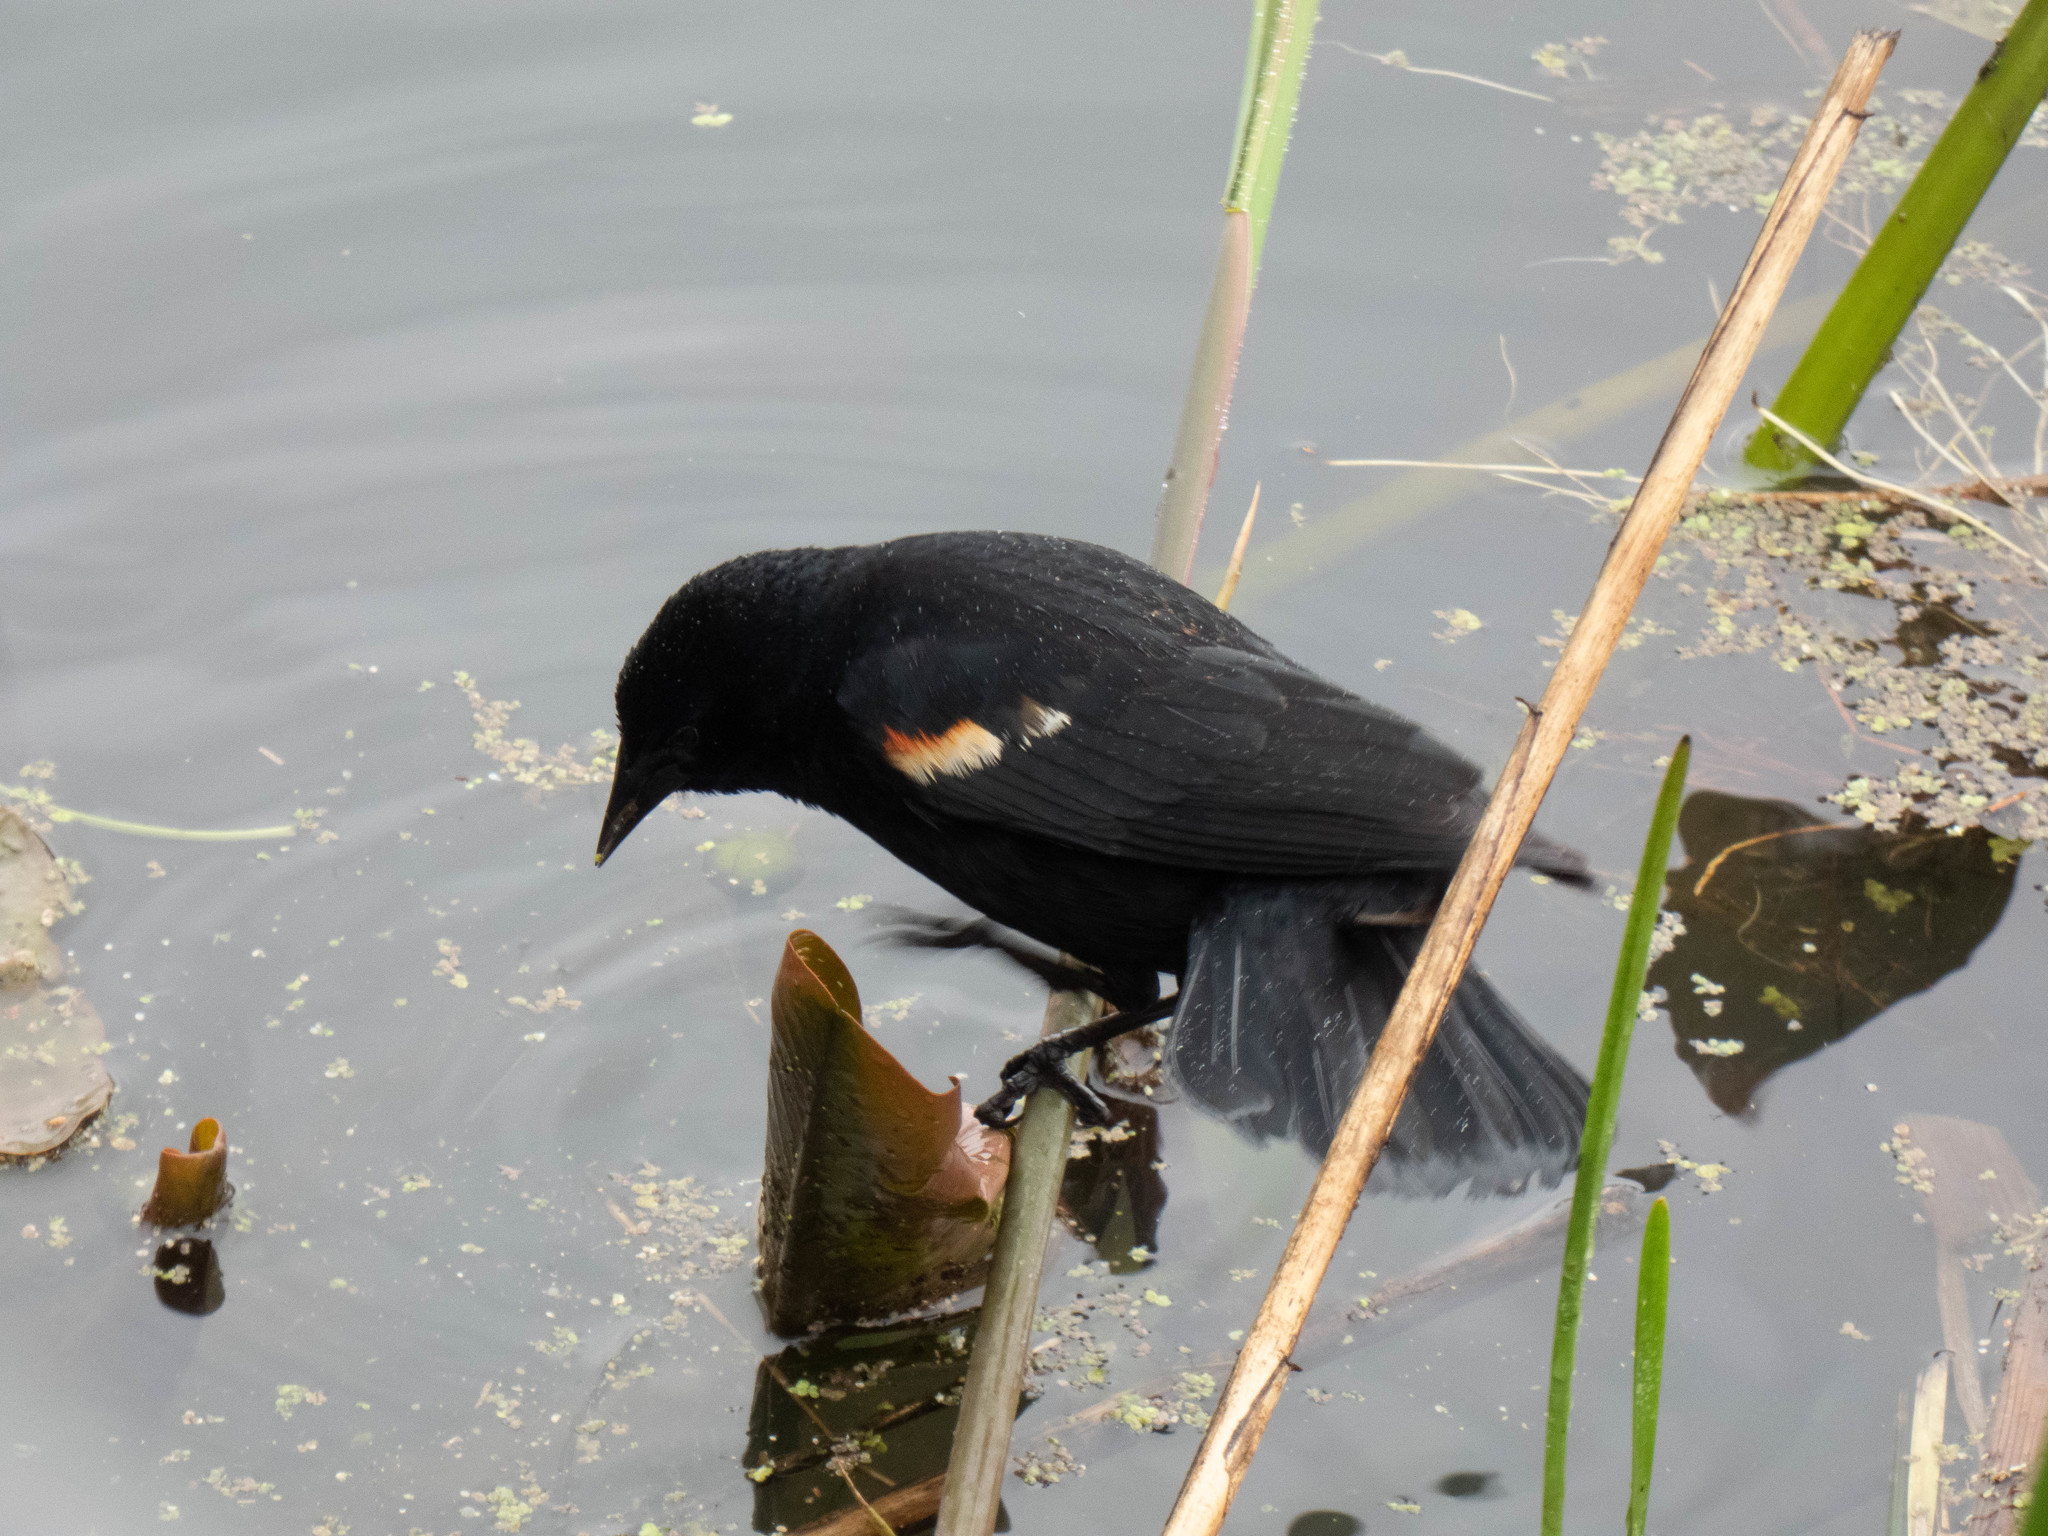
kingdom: Animalia
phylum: Chordata
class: Aves
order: Passeriformes
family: Icteridae
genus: Agelaius
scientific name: Agelaius phoeniceus
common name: Red-winged blackbird
